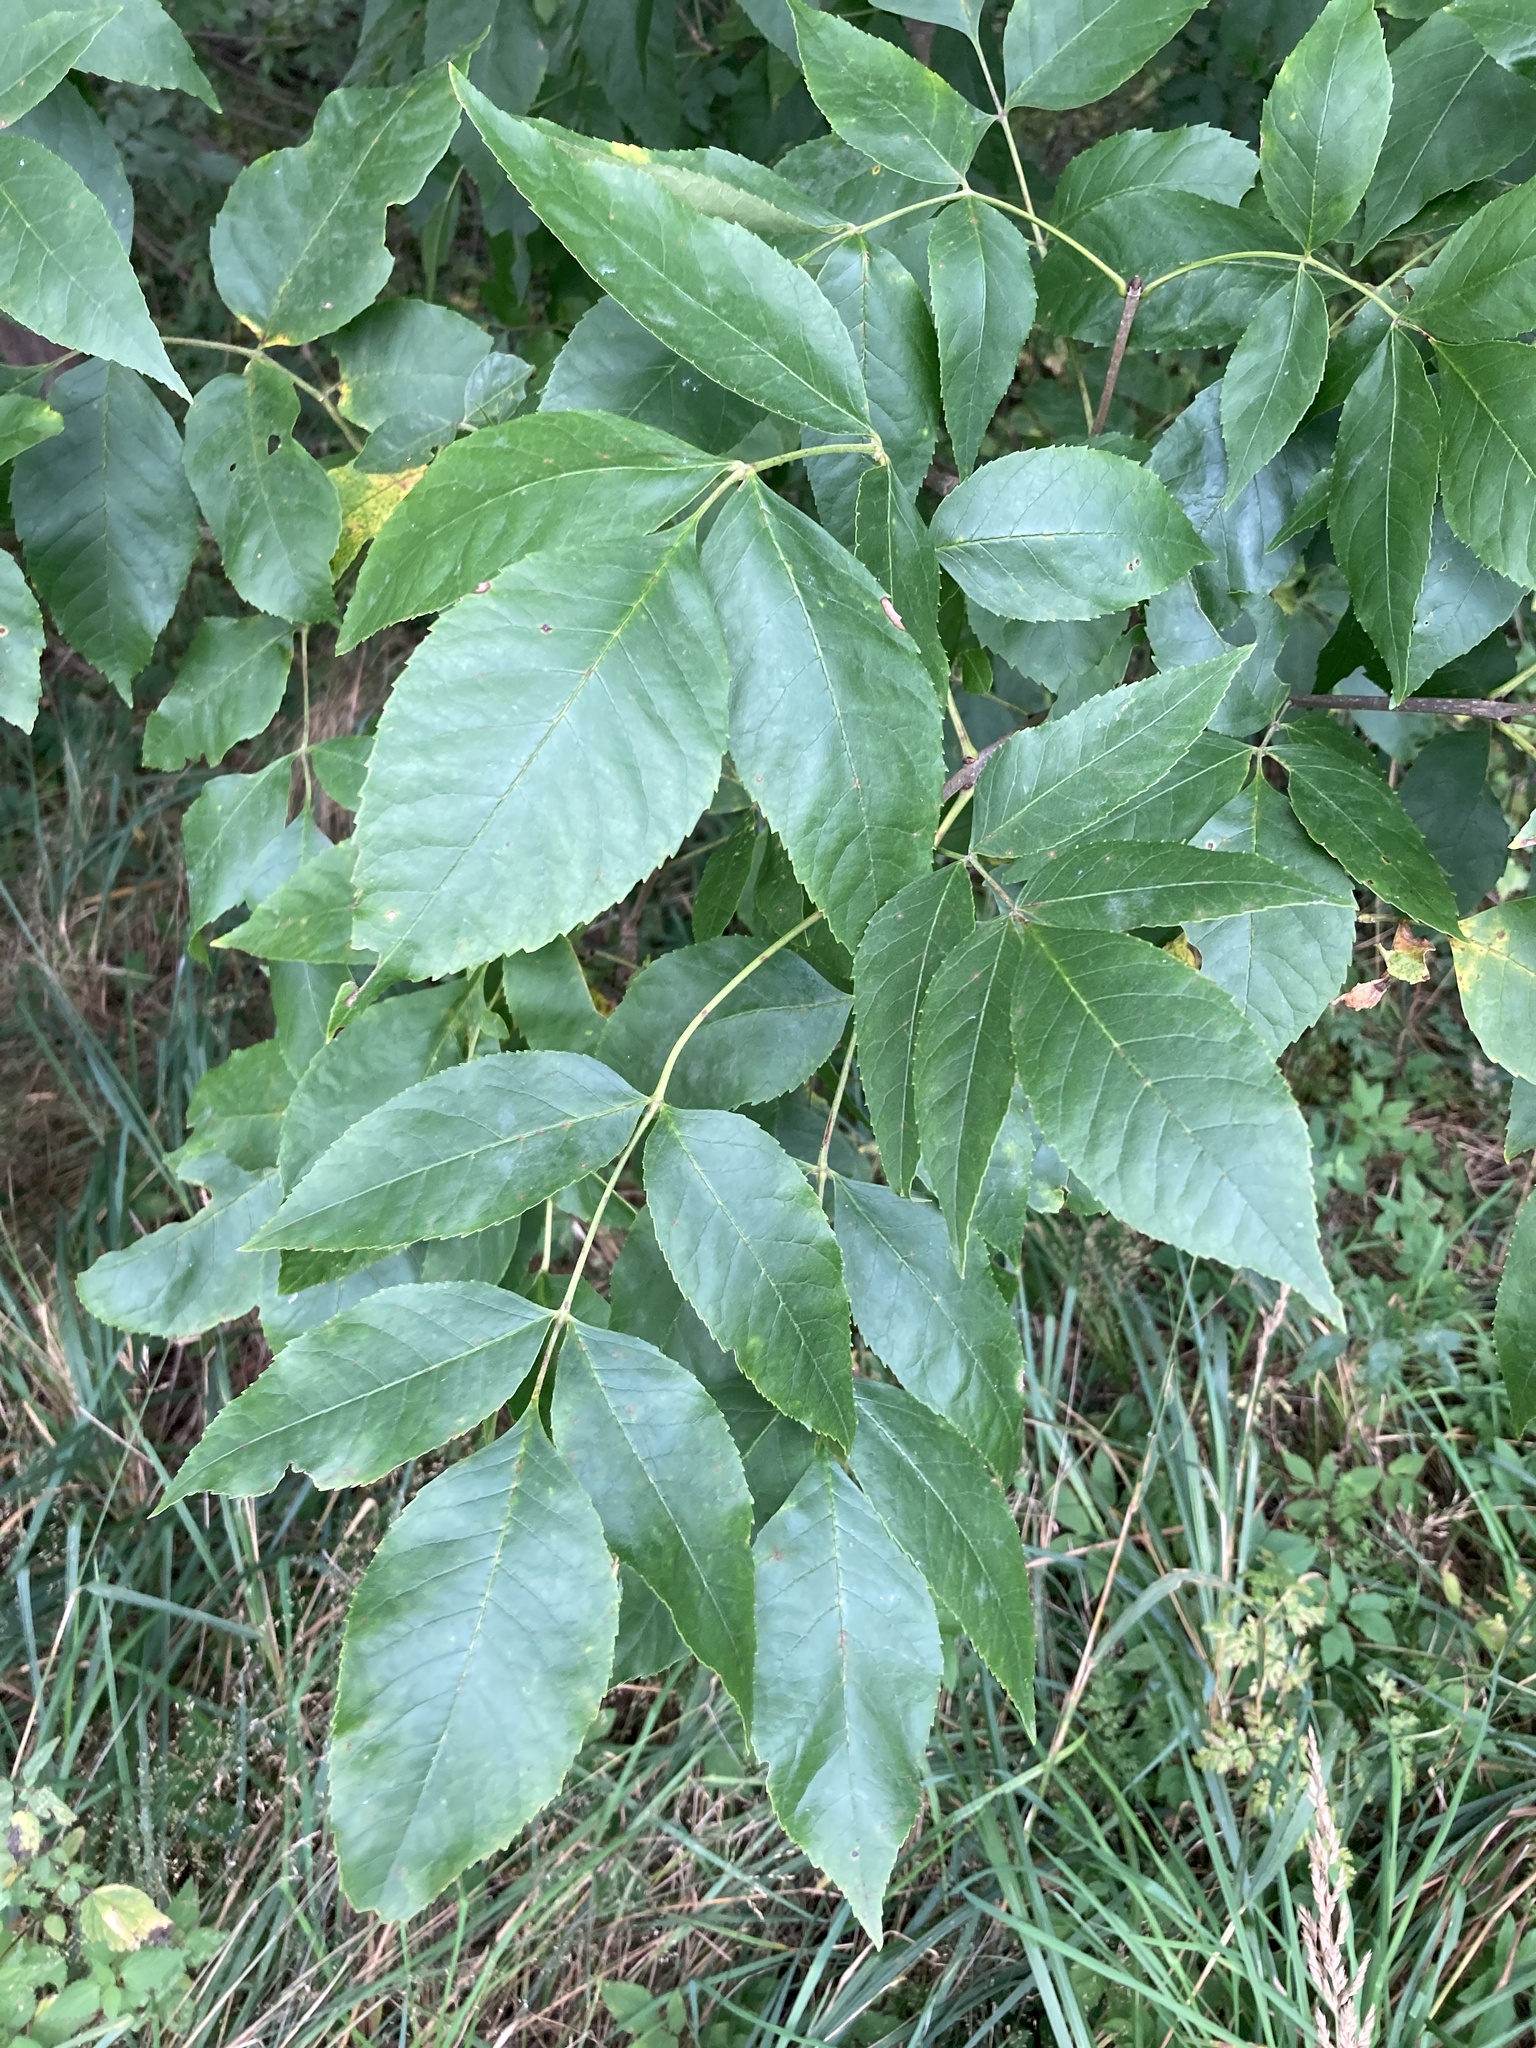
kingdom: Plantae
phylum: Tracheophyta
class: Magnoliopsida
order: Lamiales
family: Oleaceae
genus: Fraxinus
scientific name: Fraxinus pennsylvanica
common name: Green ash
